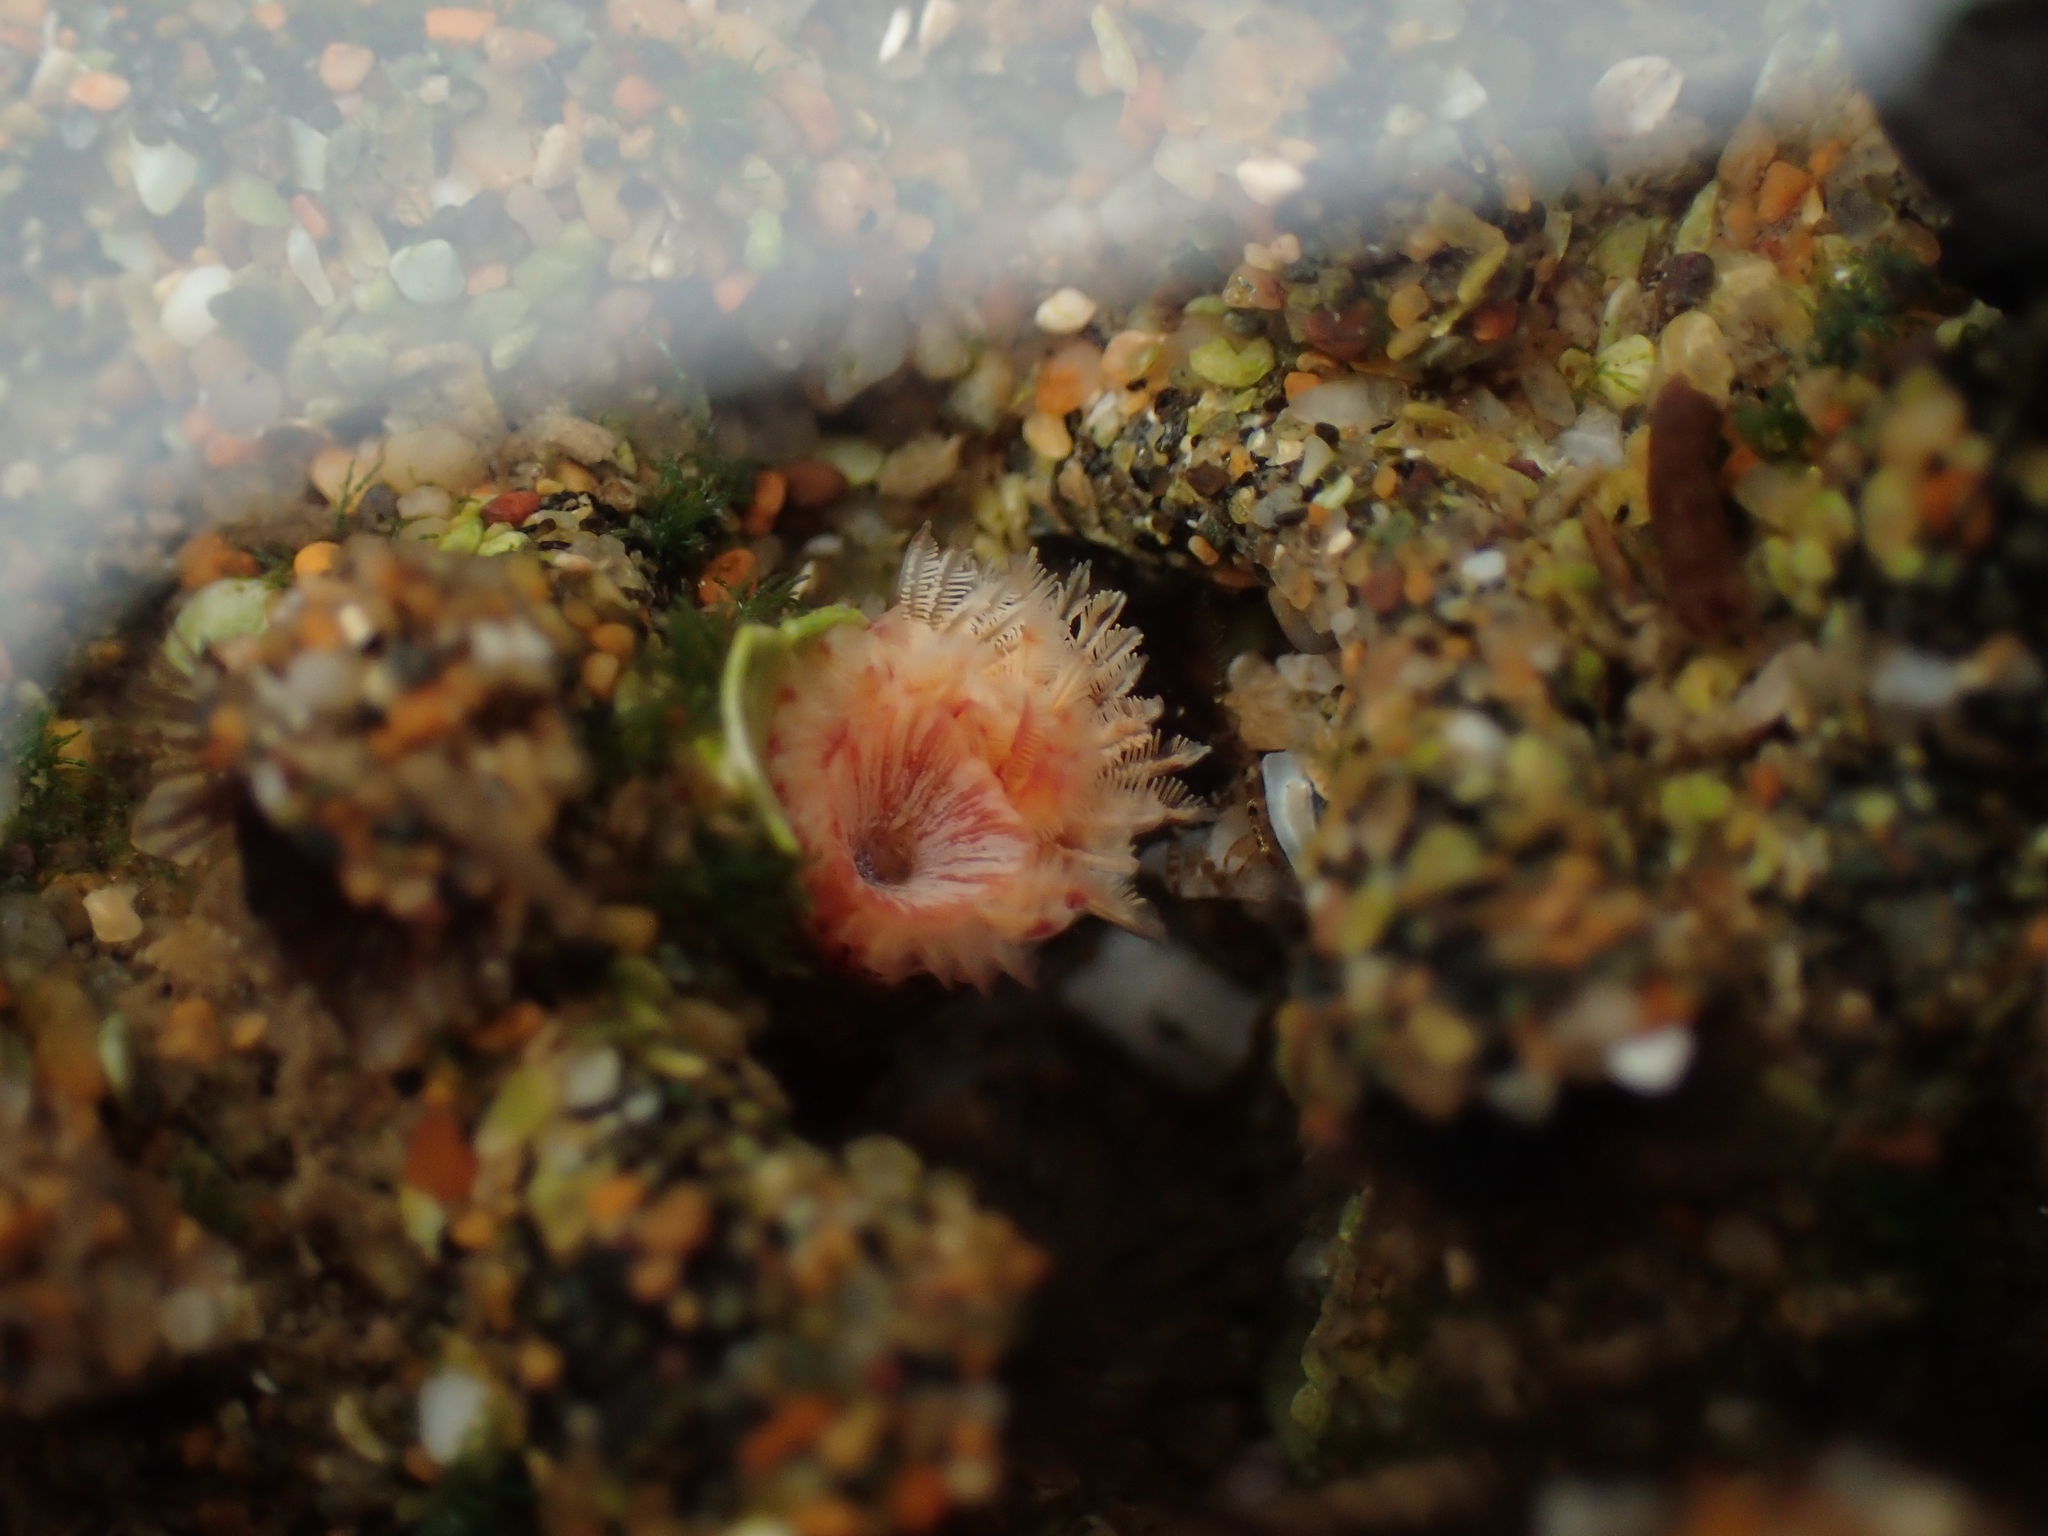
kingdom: Animalia
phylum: Annelida
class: Polychaeta
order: Sabellida
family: Serpulidae
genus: Serpula
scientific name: Serpula columbiana
